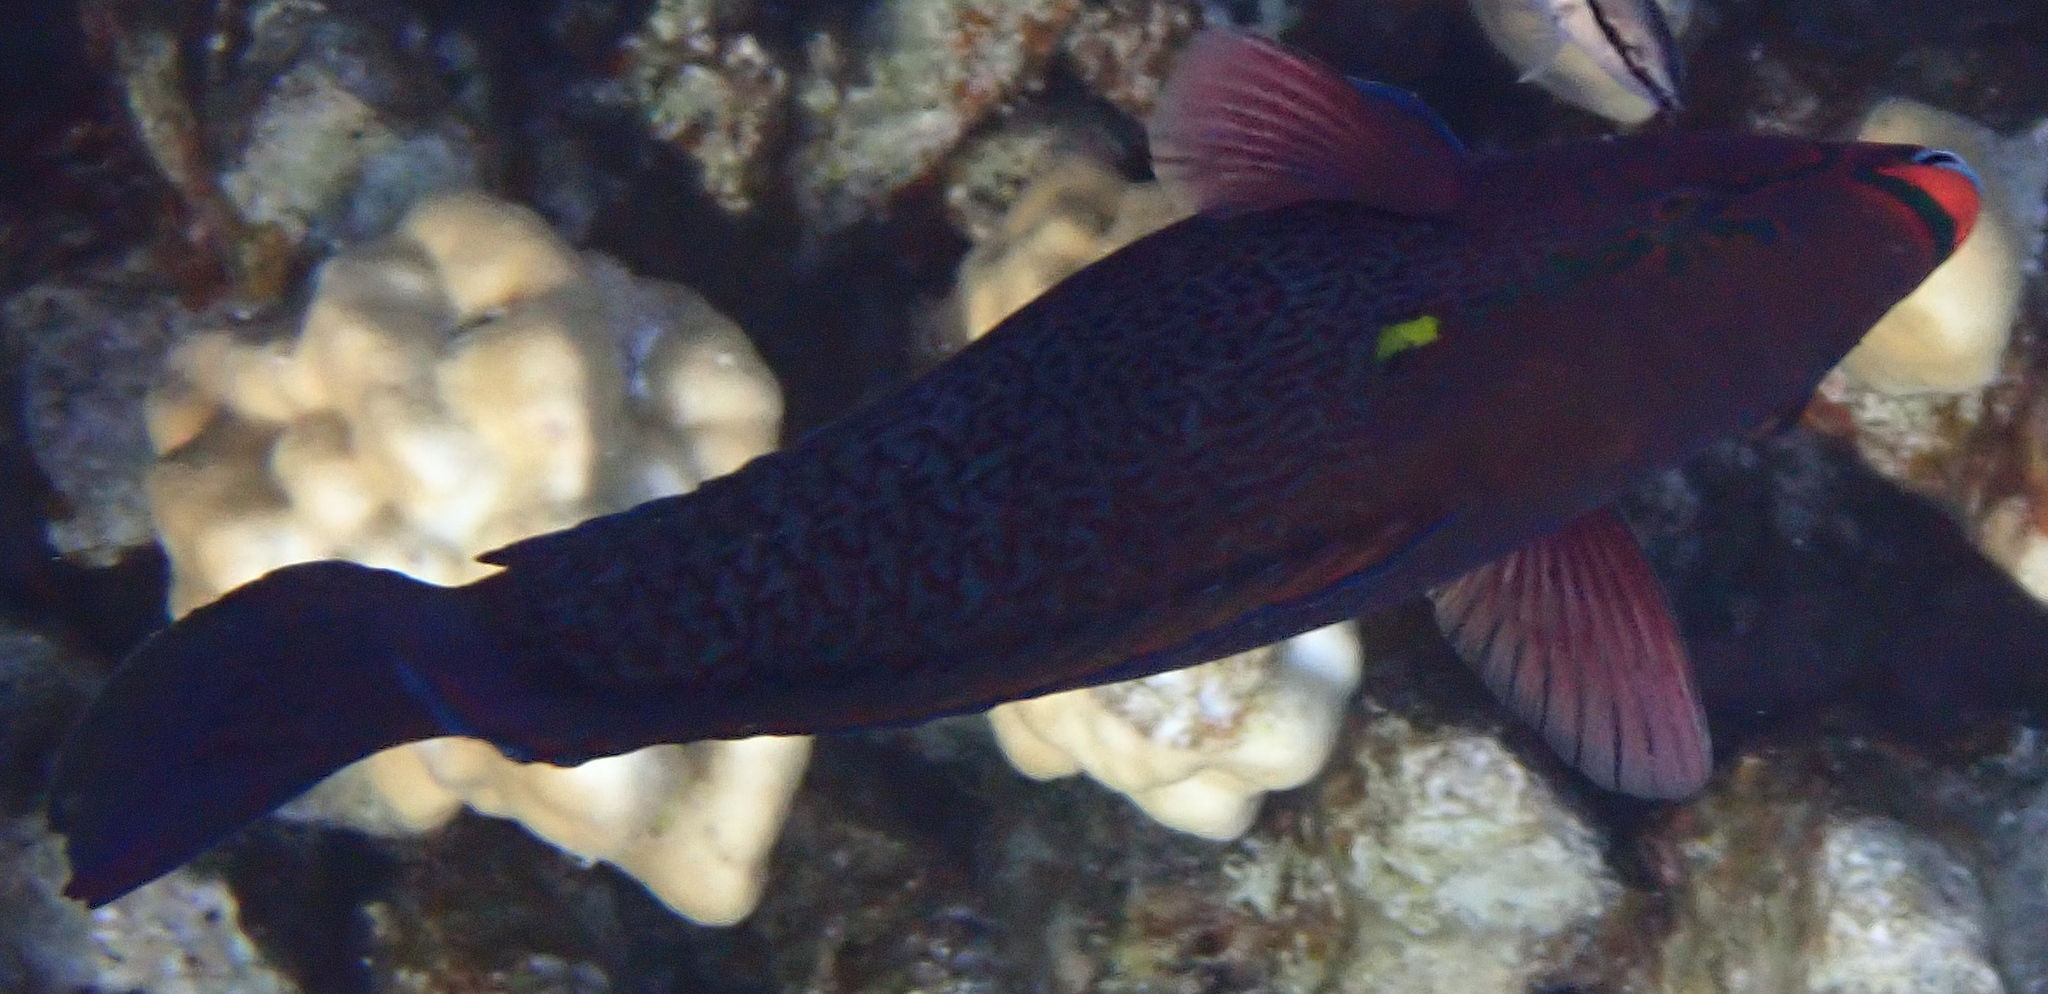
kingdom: Animalia
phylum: Chordata
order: Perciformes
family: Scaridae
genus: Scarus
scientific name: Scarus niger
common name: Dusky parrotfish
